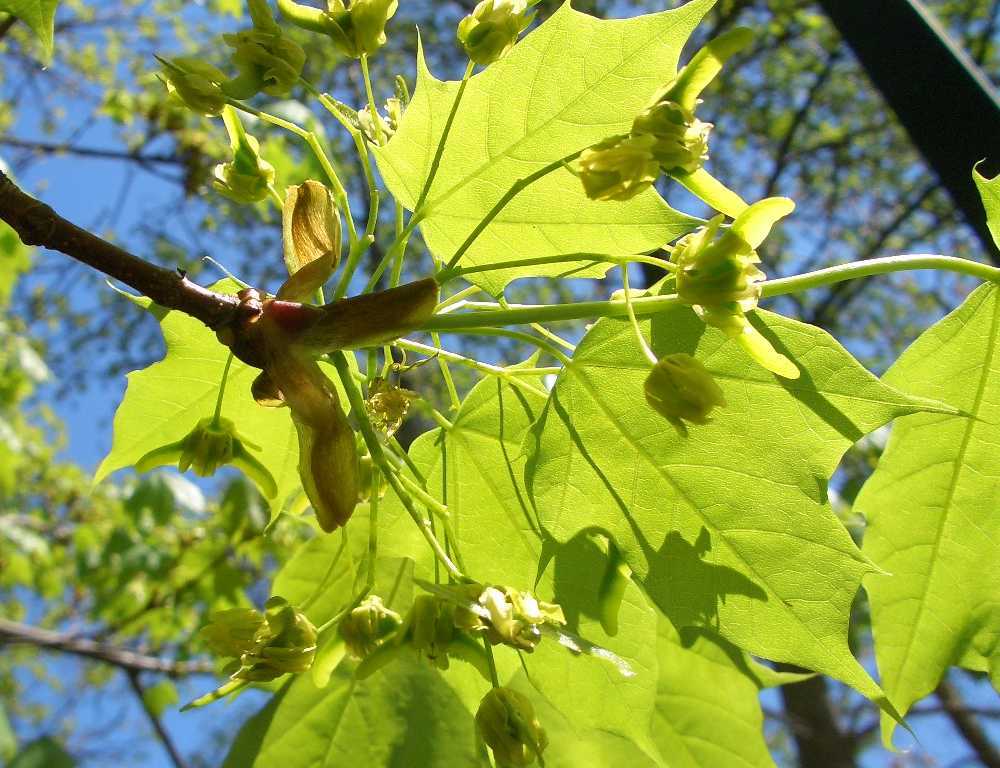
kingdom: Plantae
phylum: Tracheophyta
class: Magnoliopsida
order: Sapindales
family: Sapindaceae
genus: Acer
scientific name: Acer platanoides
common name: Norway maple
